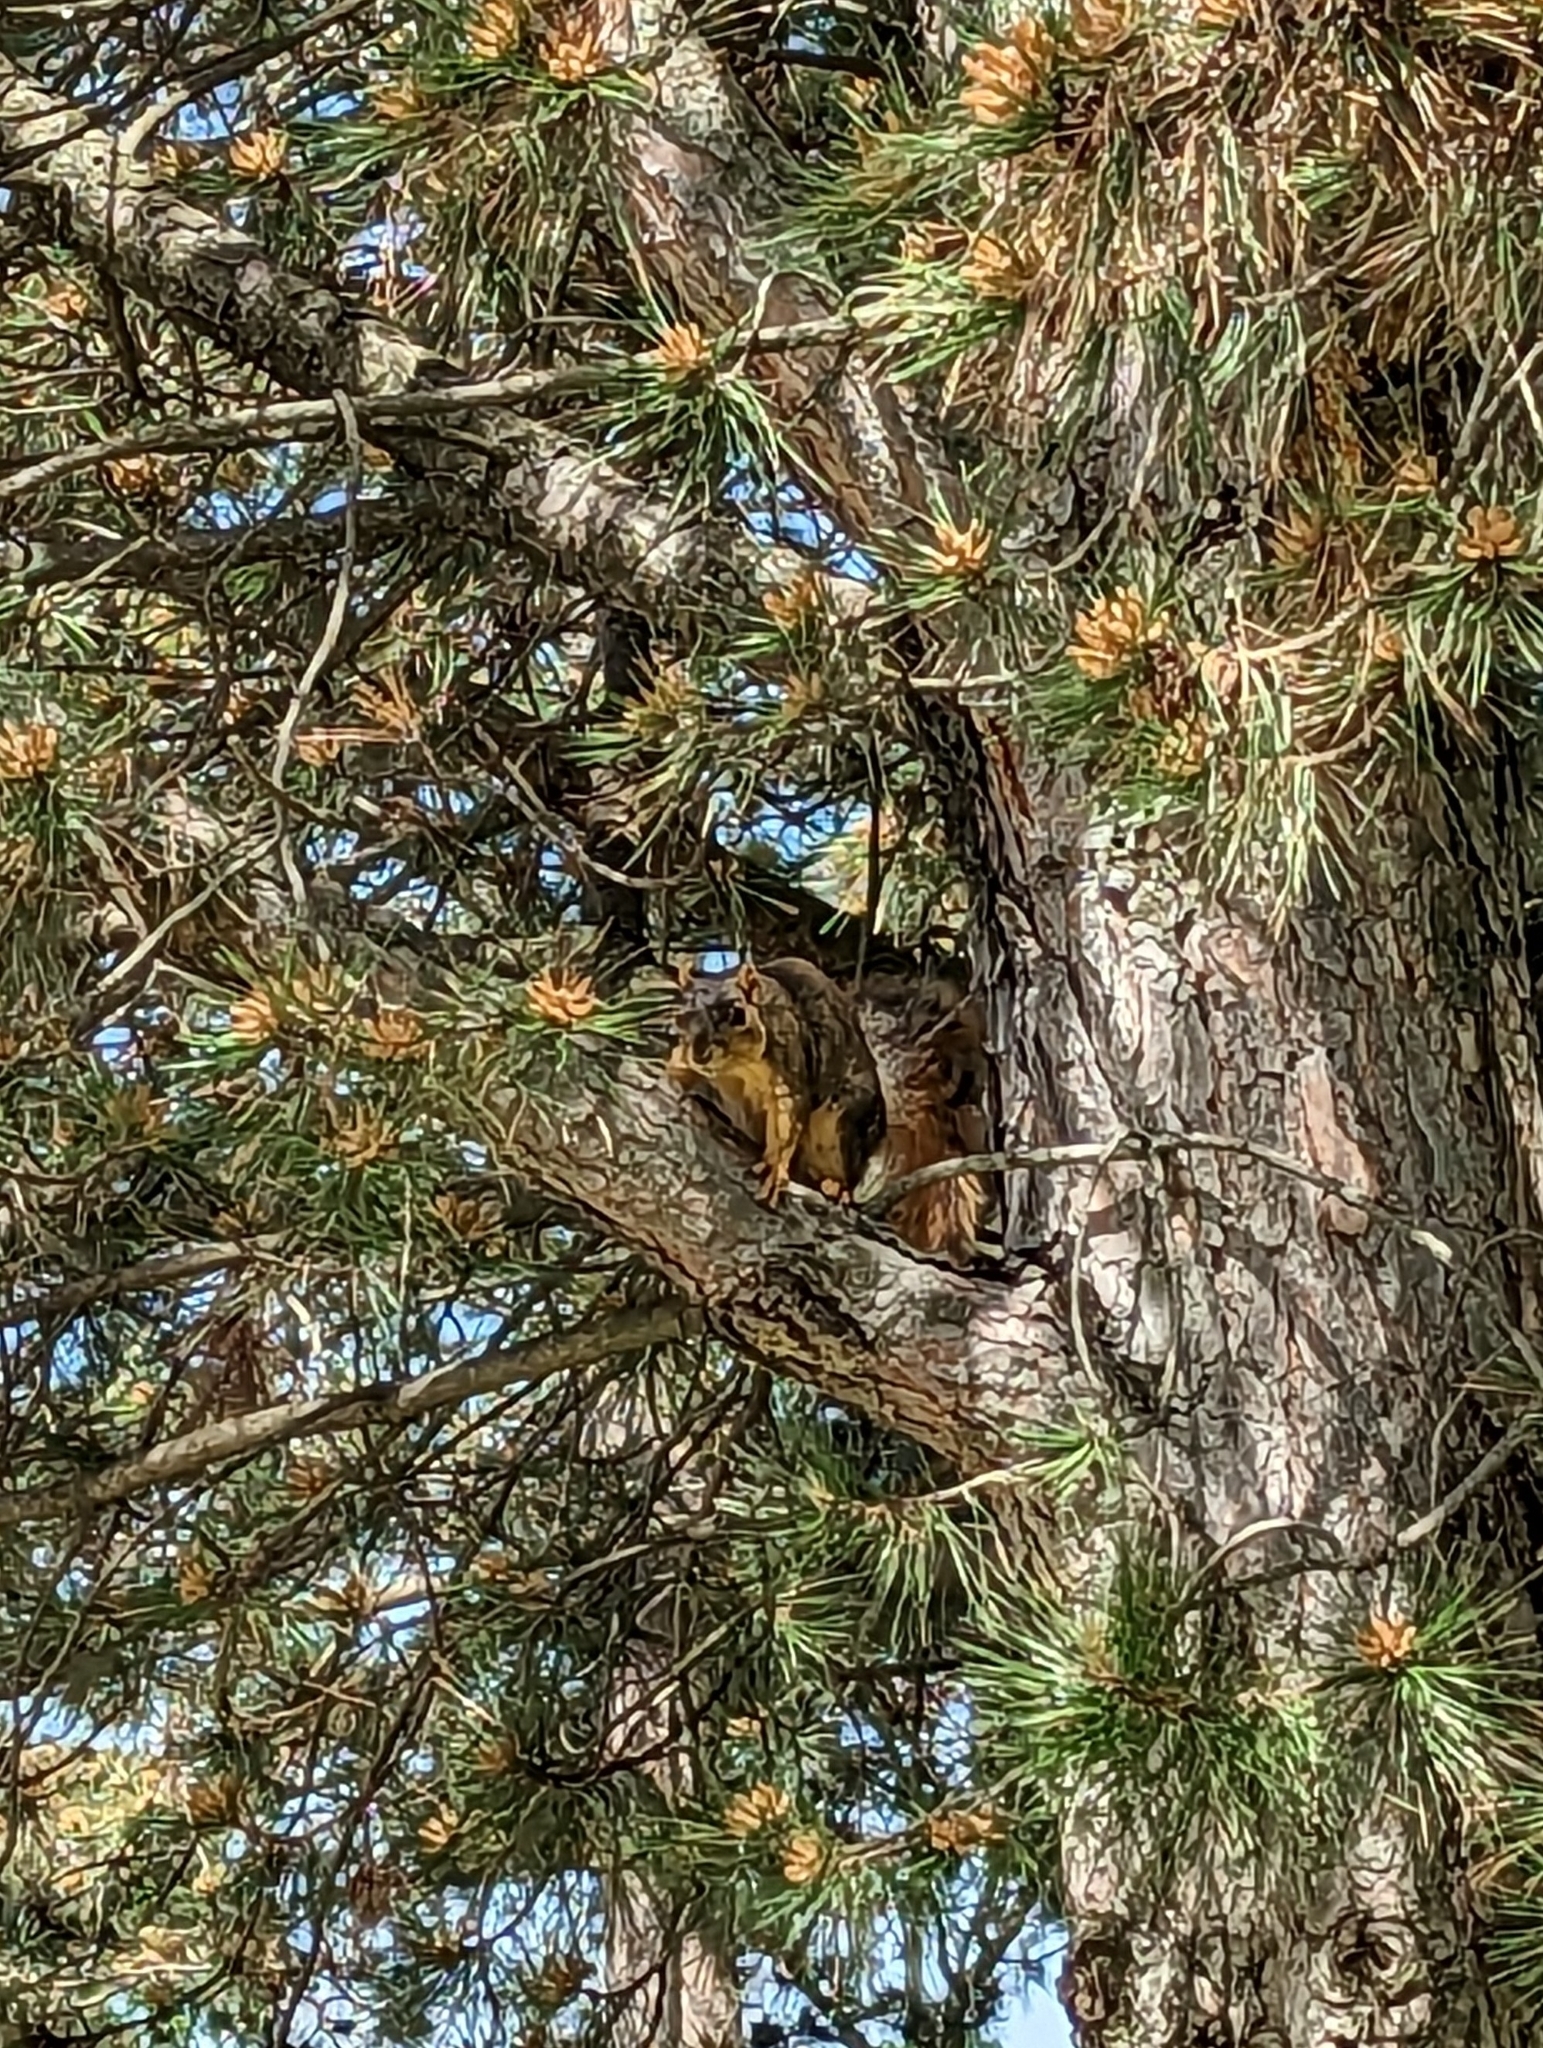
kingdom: Animalia
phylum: Chordata
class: Mammalia
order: Rodentia
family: Sciuridae
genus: Sciurus
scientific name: Sciurus niger
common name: Fox squirrel
